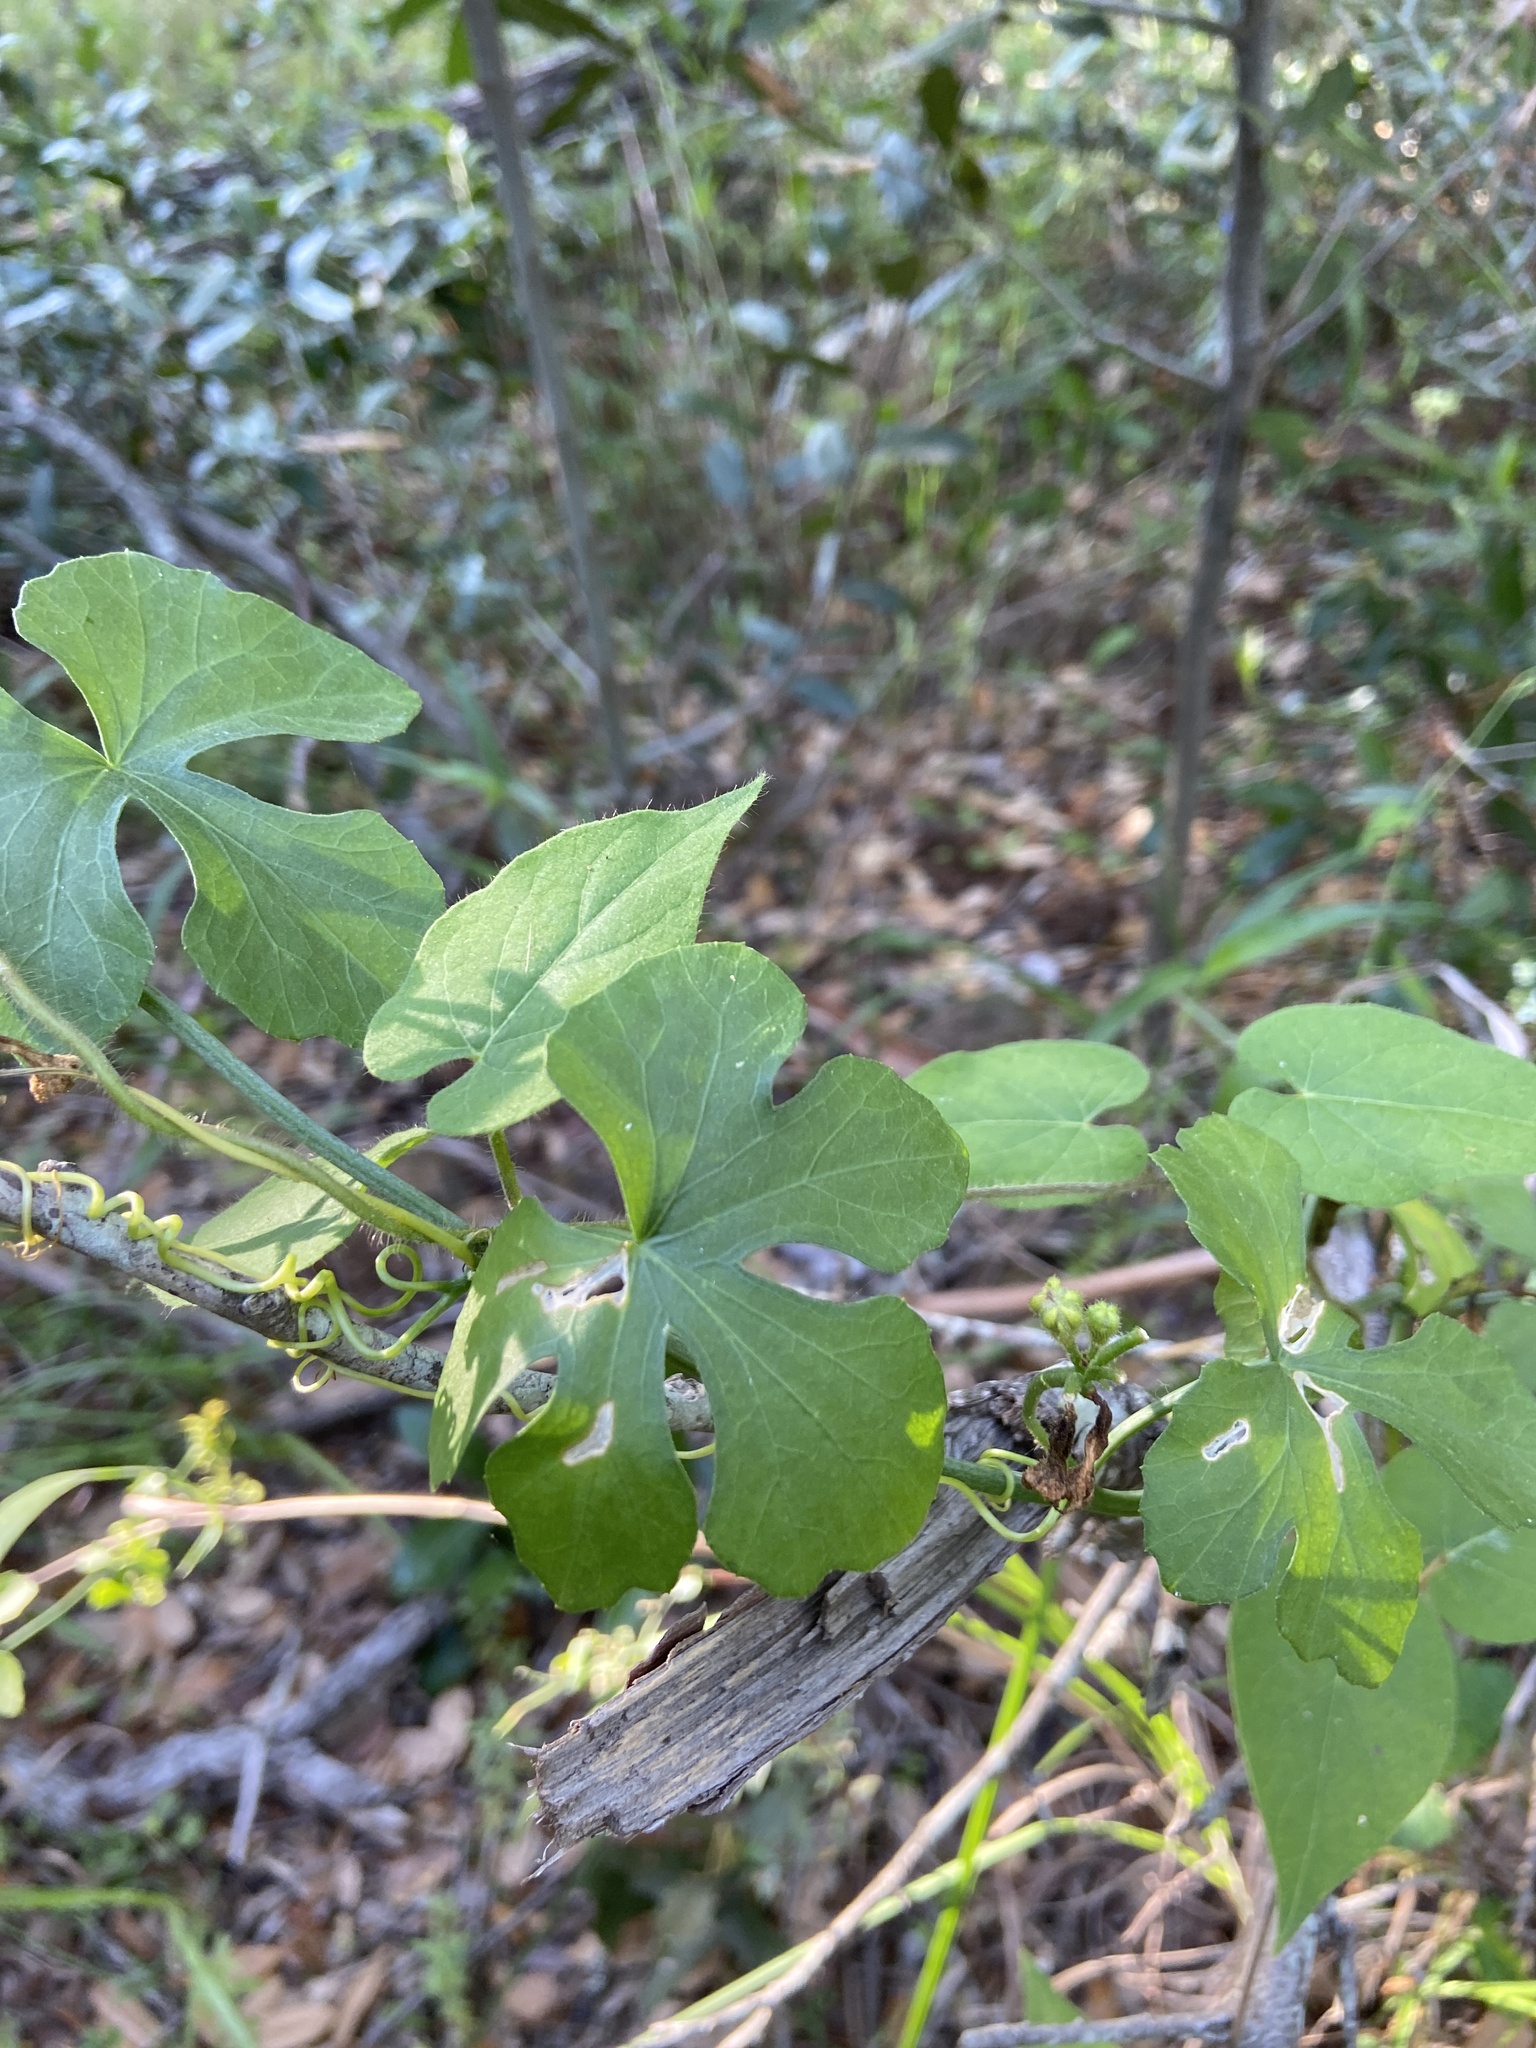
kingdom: Plantae
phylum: Tracheophyta
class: Magnoliopsida
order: Cucurbitales
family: Cucurbitaceae
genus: Ibervillea
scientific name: Ibervillea lindheimeri
